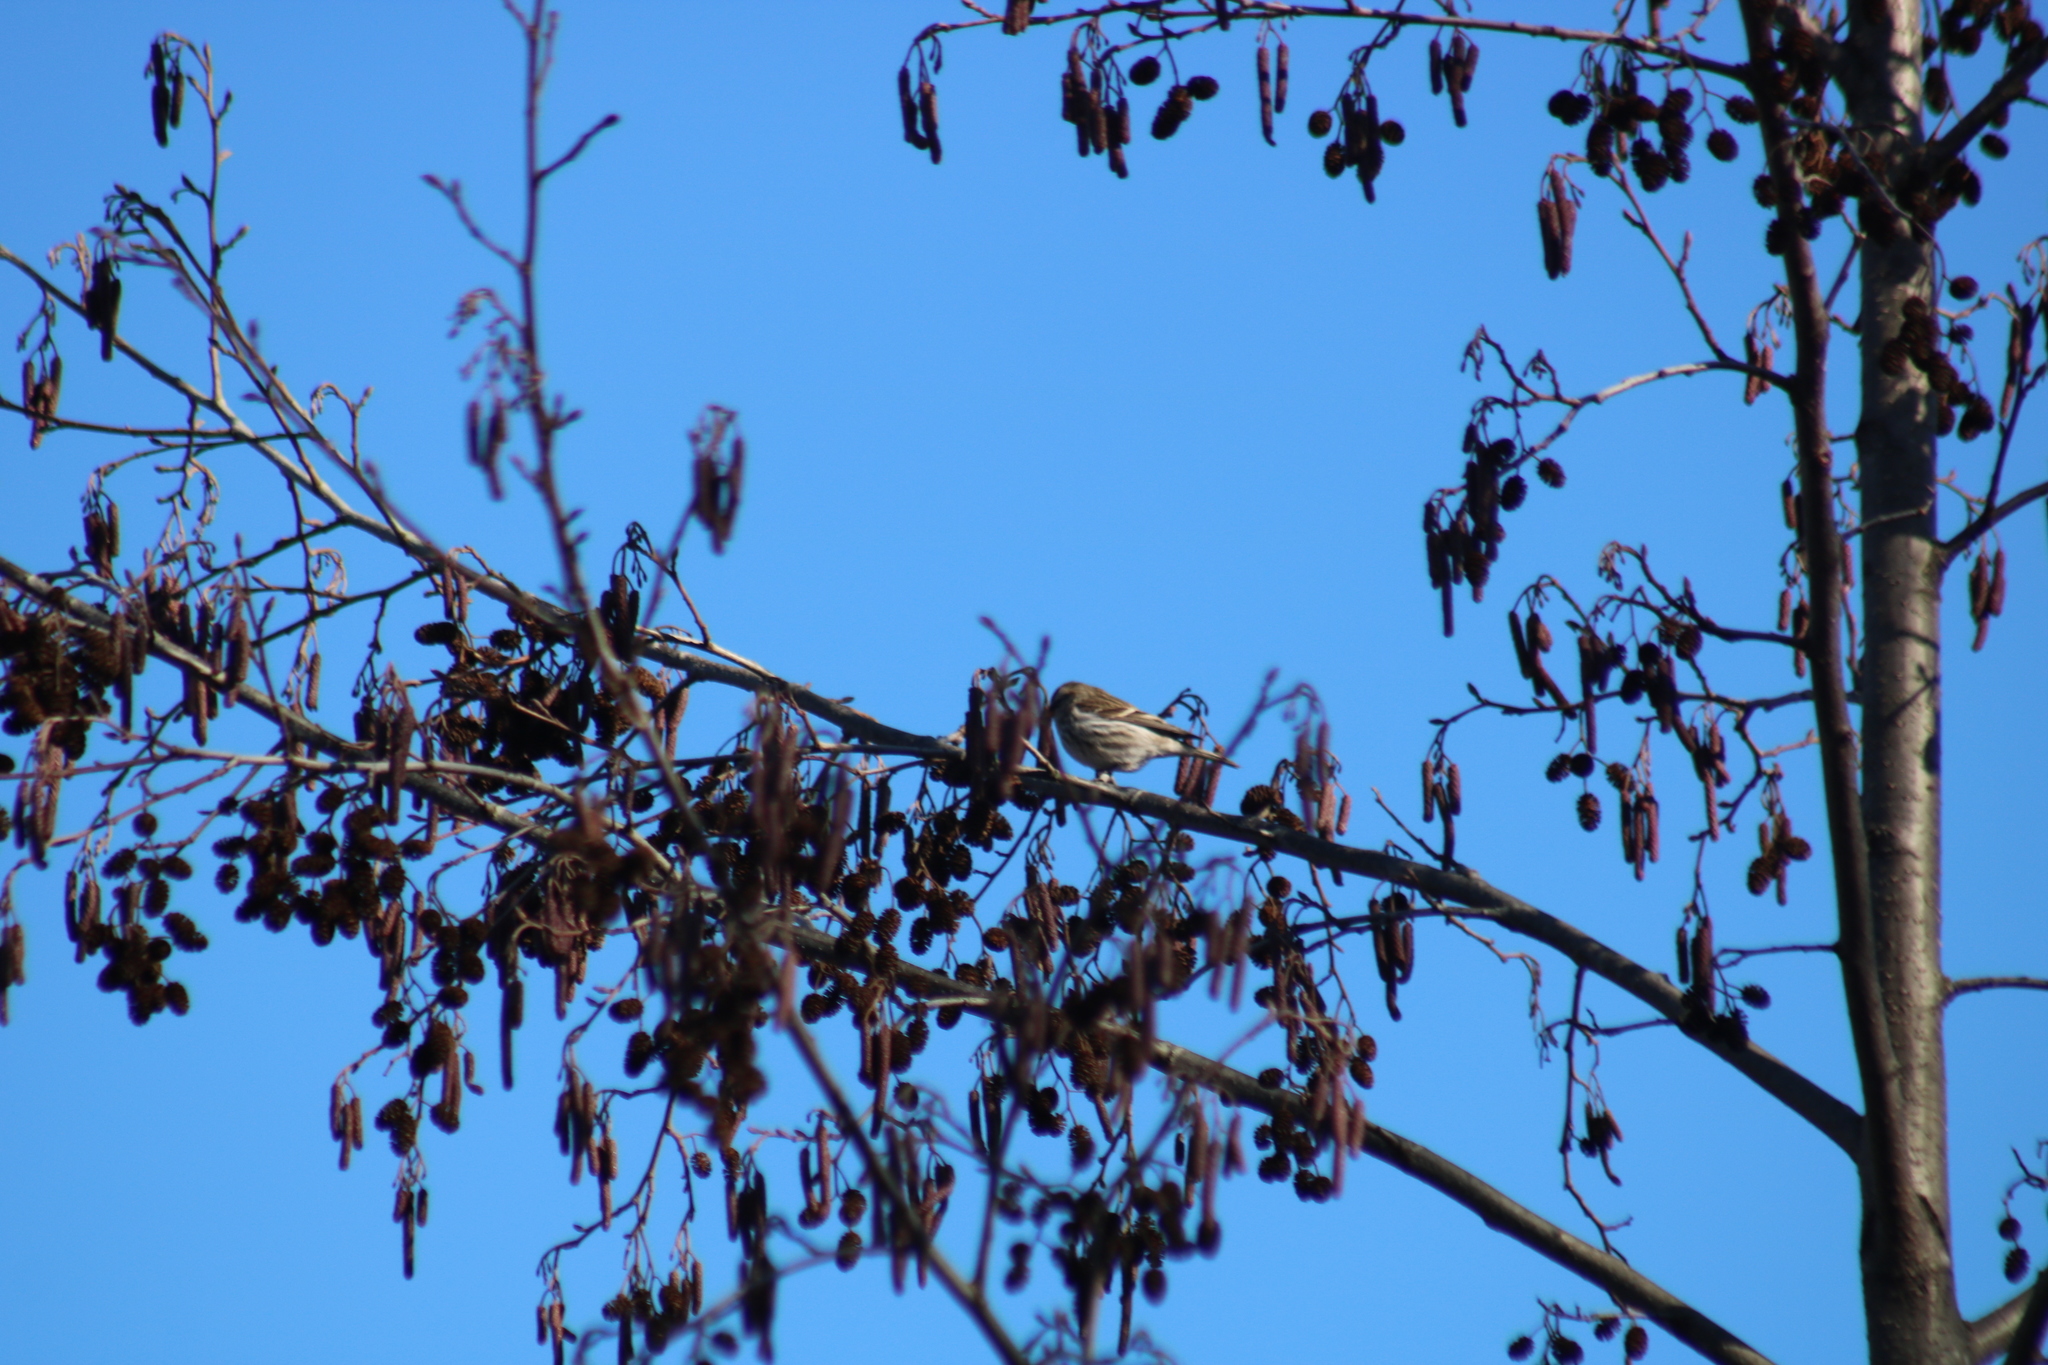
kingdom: Animalia
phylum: Chordata
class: Aves
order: Passeriformes
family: Fringillidae
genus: Acanthis
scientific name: Acanthis flammea
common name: Common redpoll
